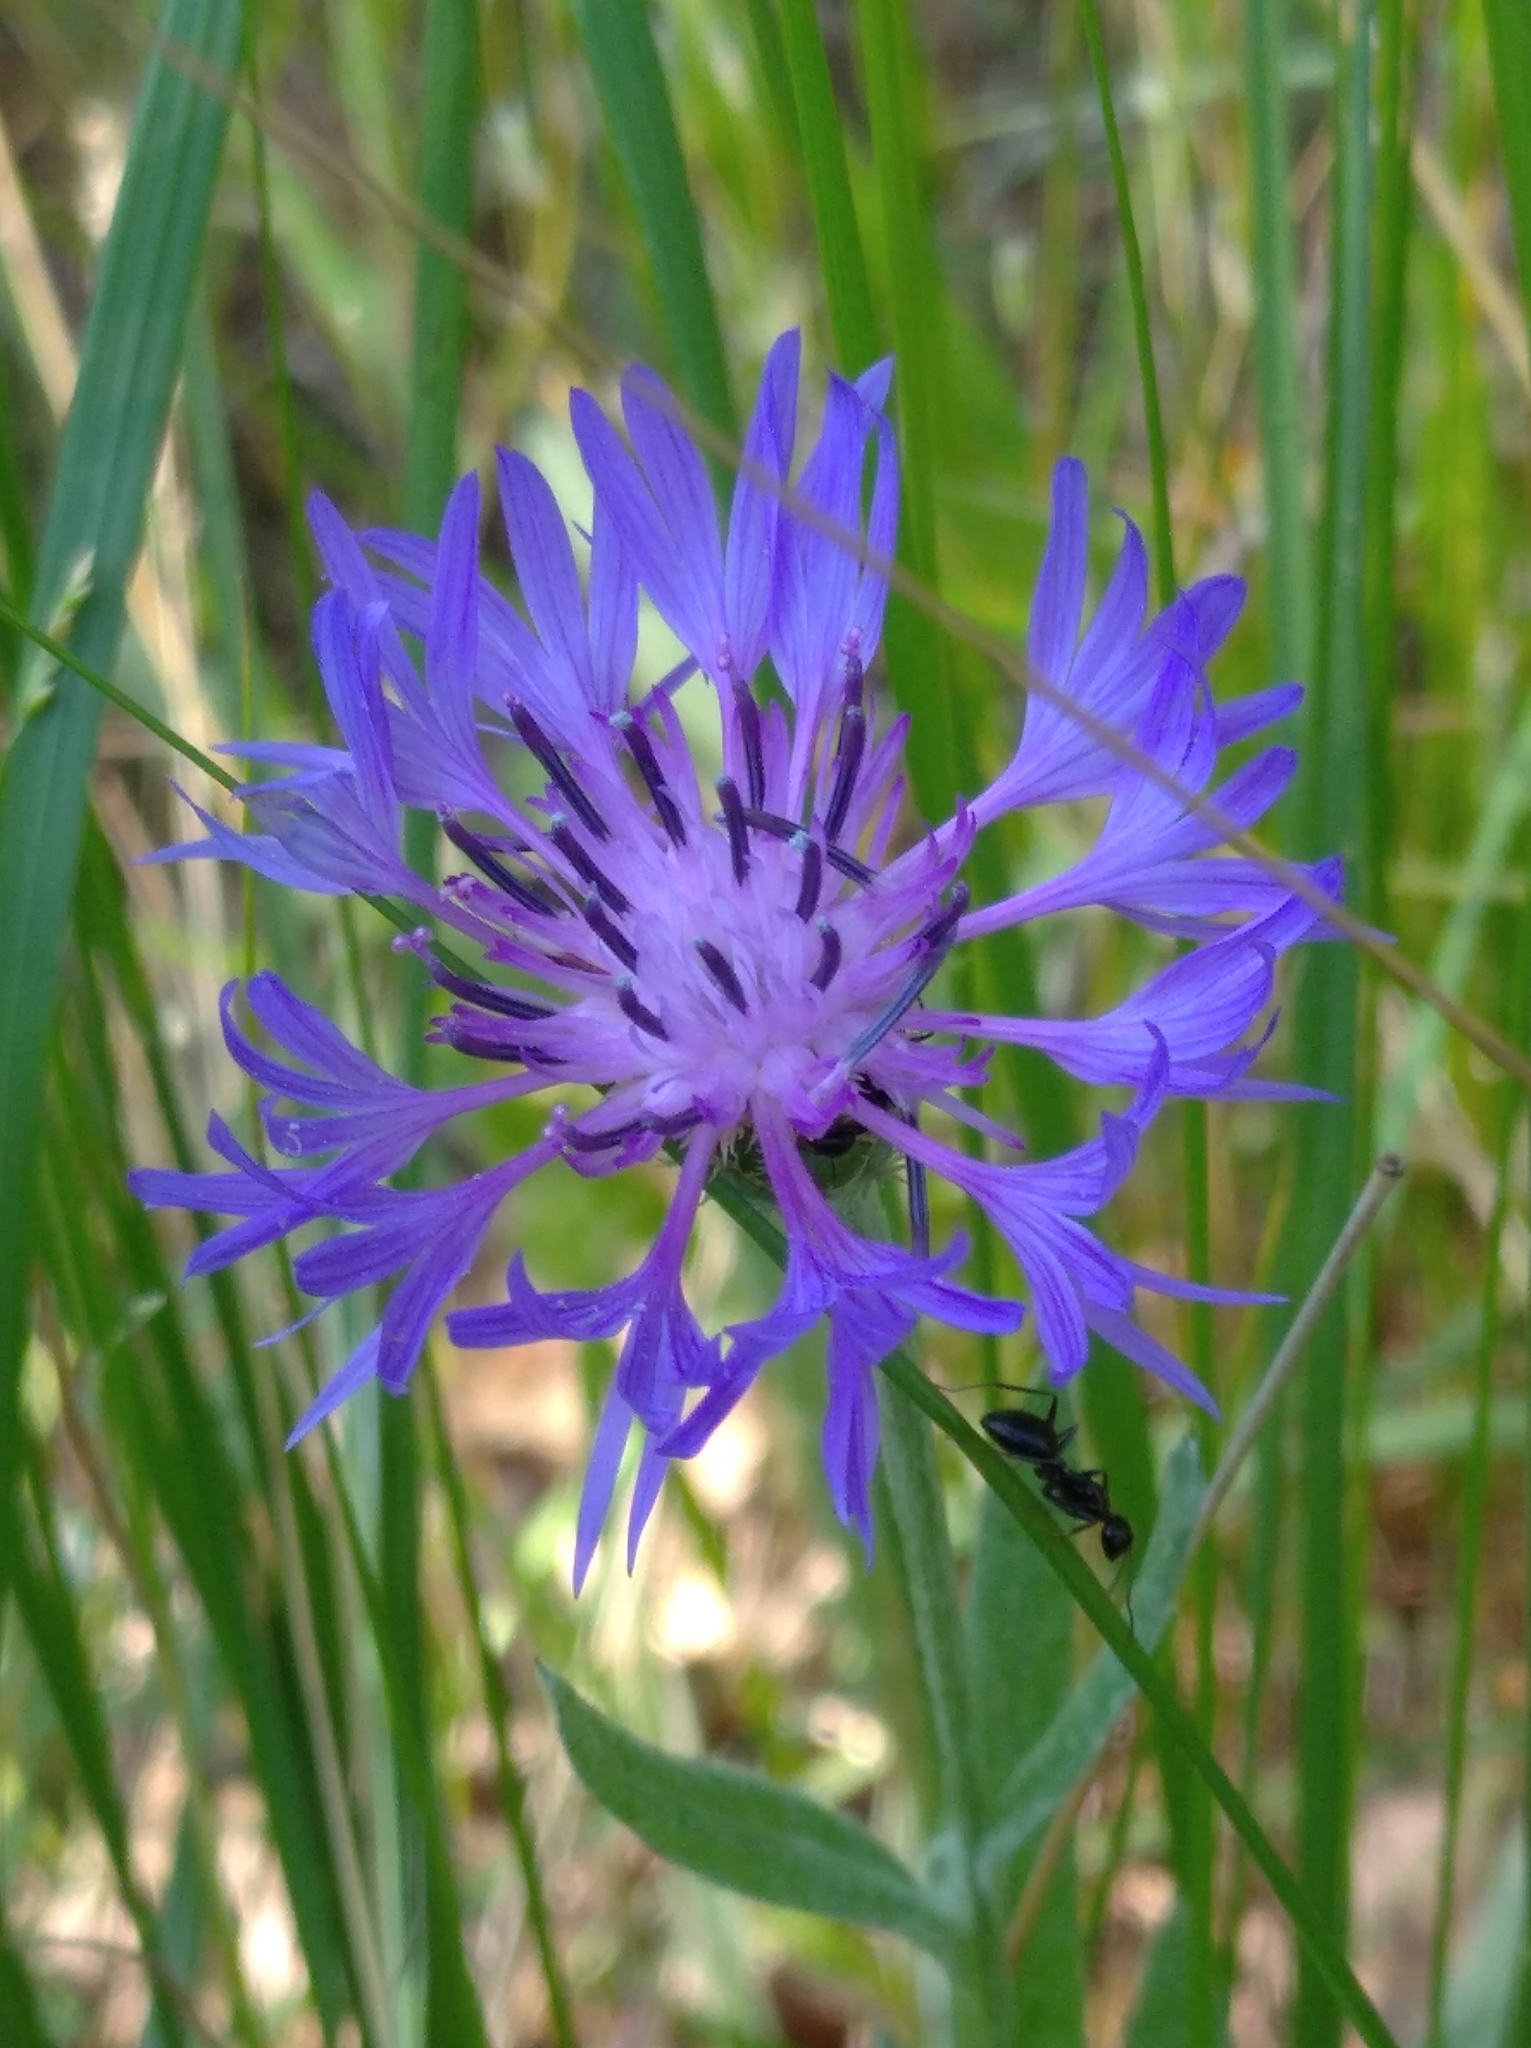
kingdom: Plantae
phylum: Tracheophyta
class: Magnoliopsida
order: Asterales
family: Asteraceae
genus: Centaurea
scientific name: Centaurea cyanus
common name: Cornflower
